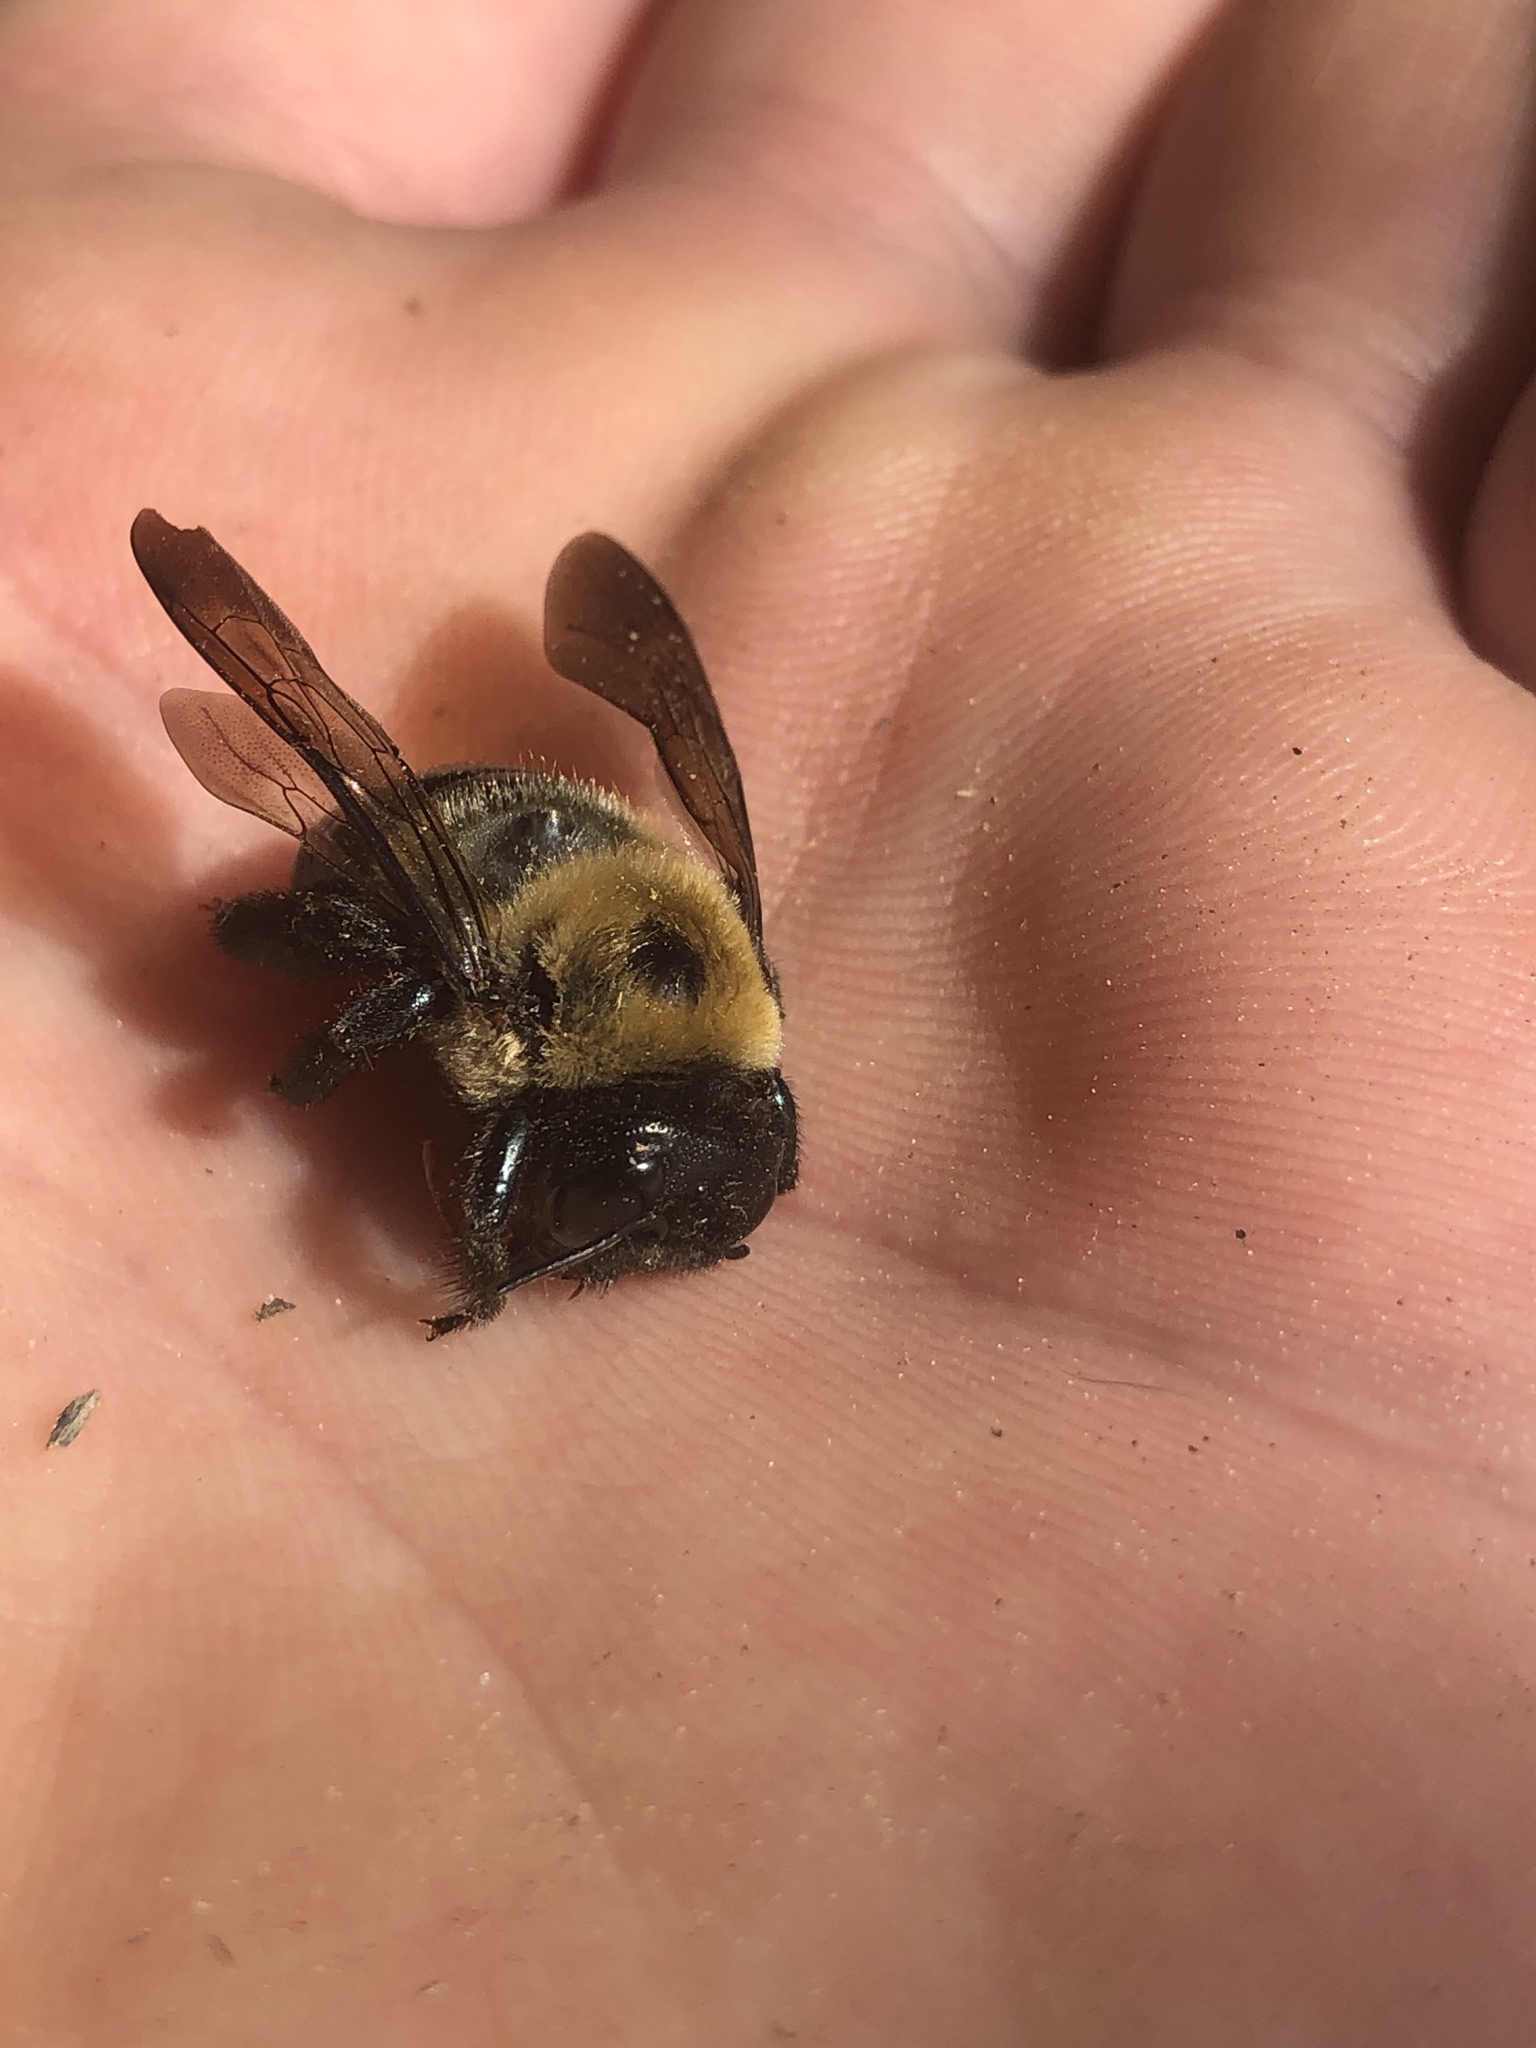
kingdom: Animalia
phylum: Arthropoda
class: Insecta
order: Hymenoptera
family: Apidae
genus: Xylocopa
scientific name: Xylocopa virginica
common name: Carpenter bee
